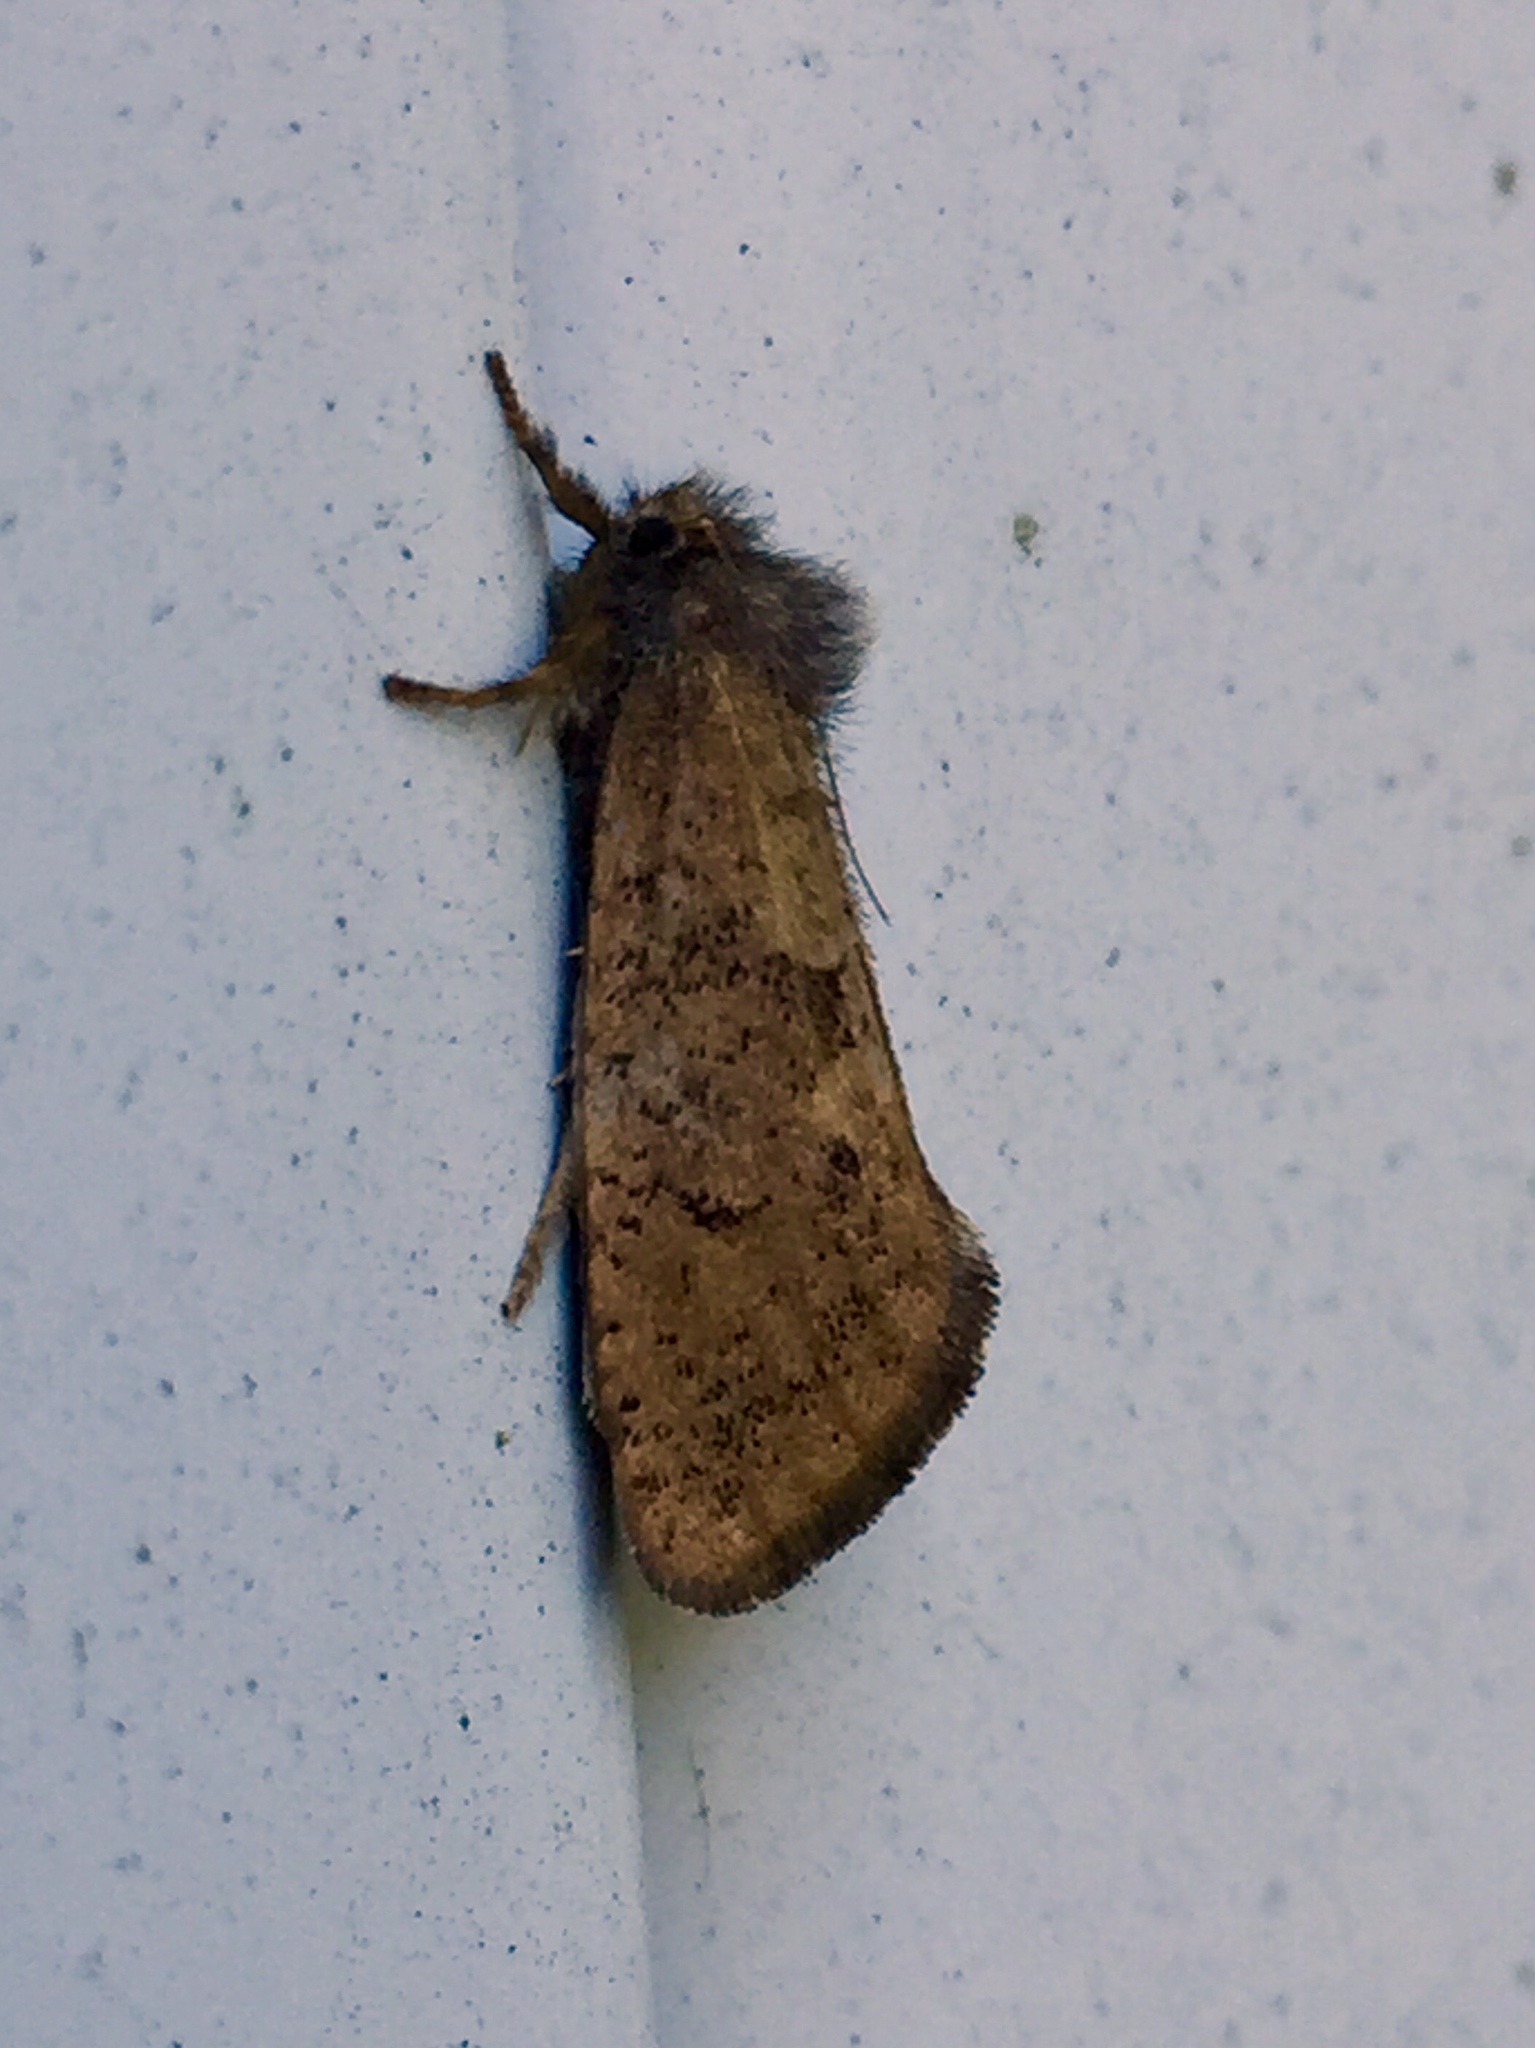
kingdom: Animalia
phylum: Arthropoda
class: Insecta
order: Lepidoptera
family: Tineidae
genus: Acrolophus
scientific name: Acrolophus mora
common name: Dark acrolophus
